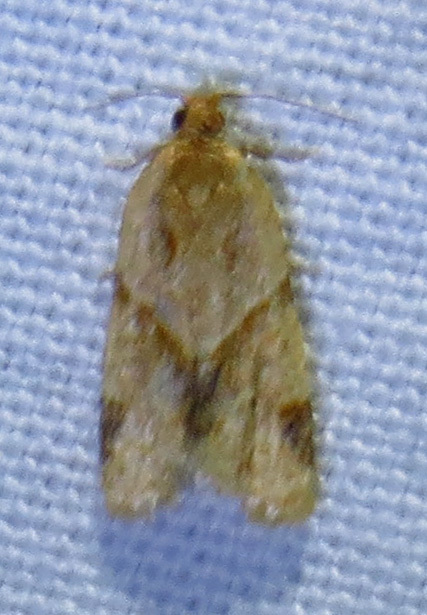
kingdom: Animalia
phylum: Arthropoda
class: Insecta
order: Lepidoptera
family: Tortricidae
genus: Clepsis
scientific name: Clepsis peritana
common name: Garden tortrix
